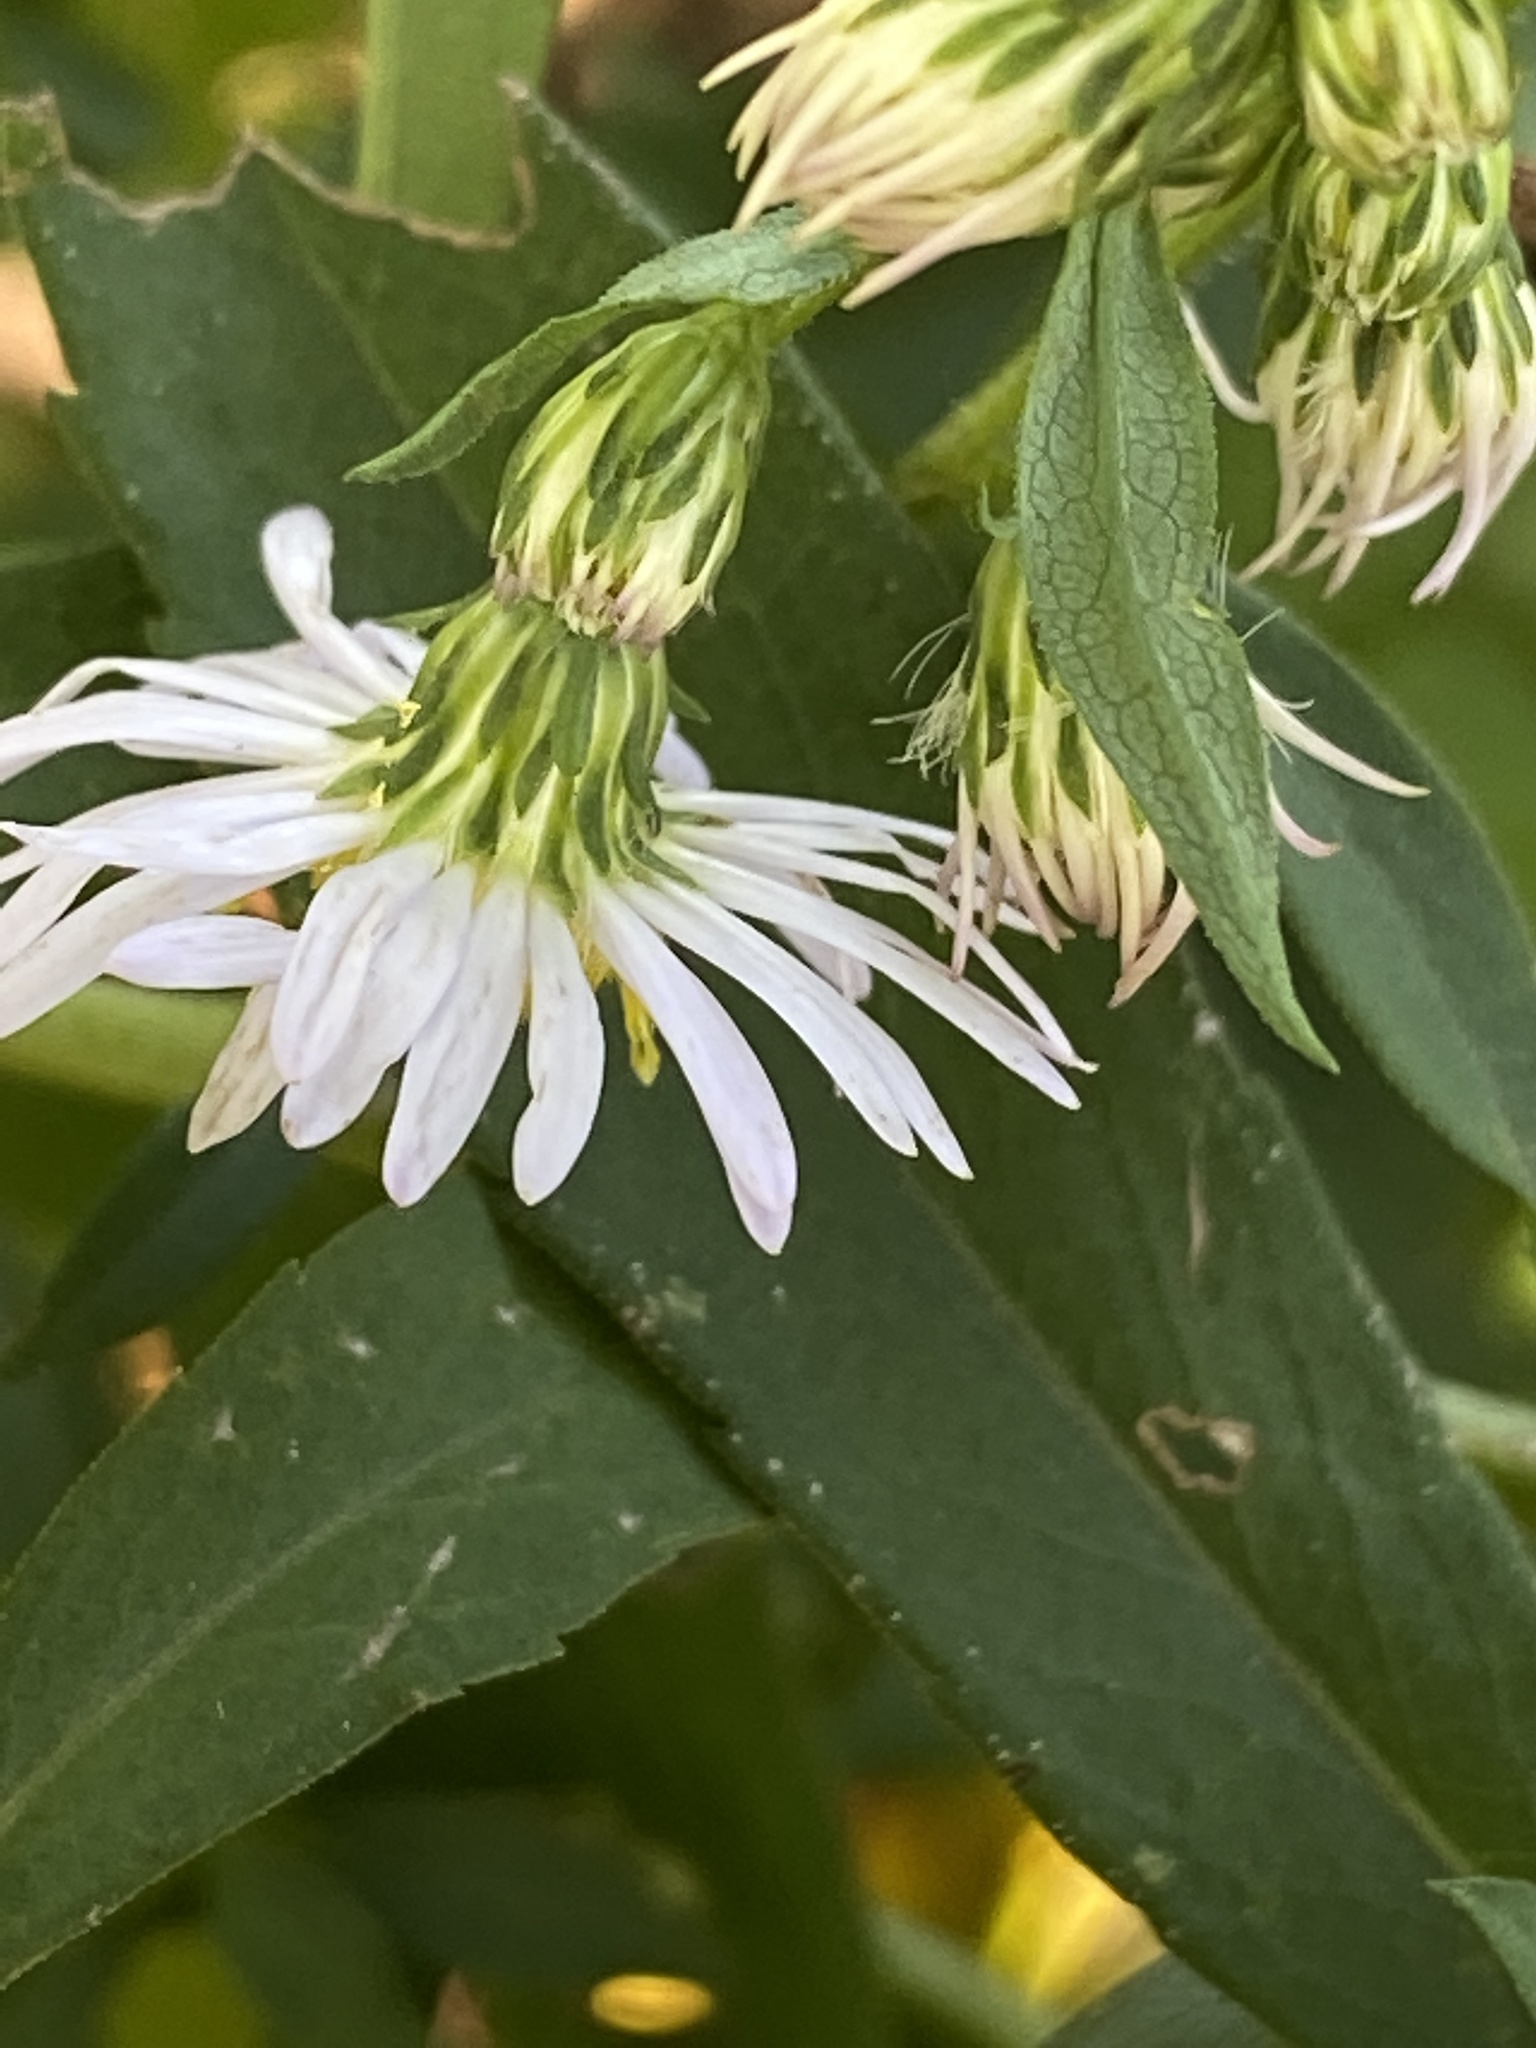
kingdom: Plantae
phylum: Tracheophyta
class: Magnoliopsida
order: Asterales
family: Asteraceae
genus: Symphyotrichum
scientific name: Symphyotrichum lanceolatum
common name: Panicled aster
